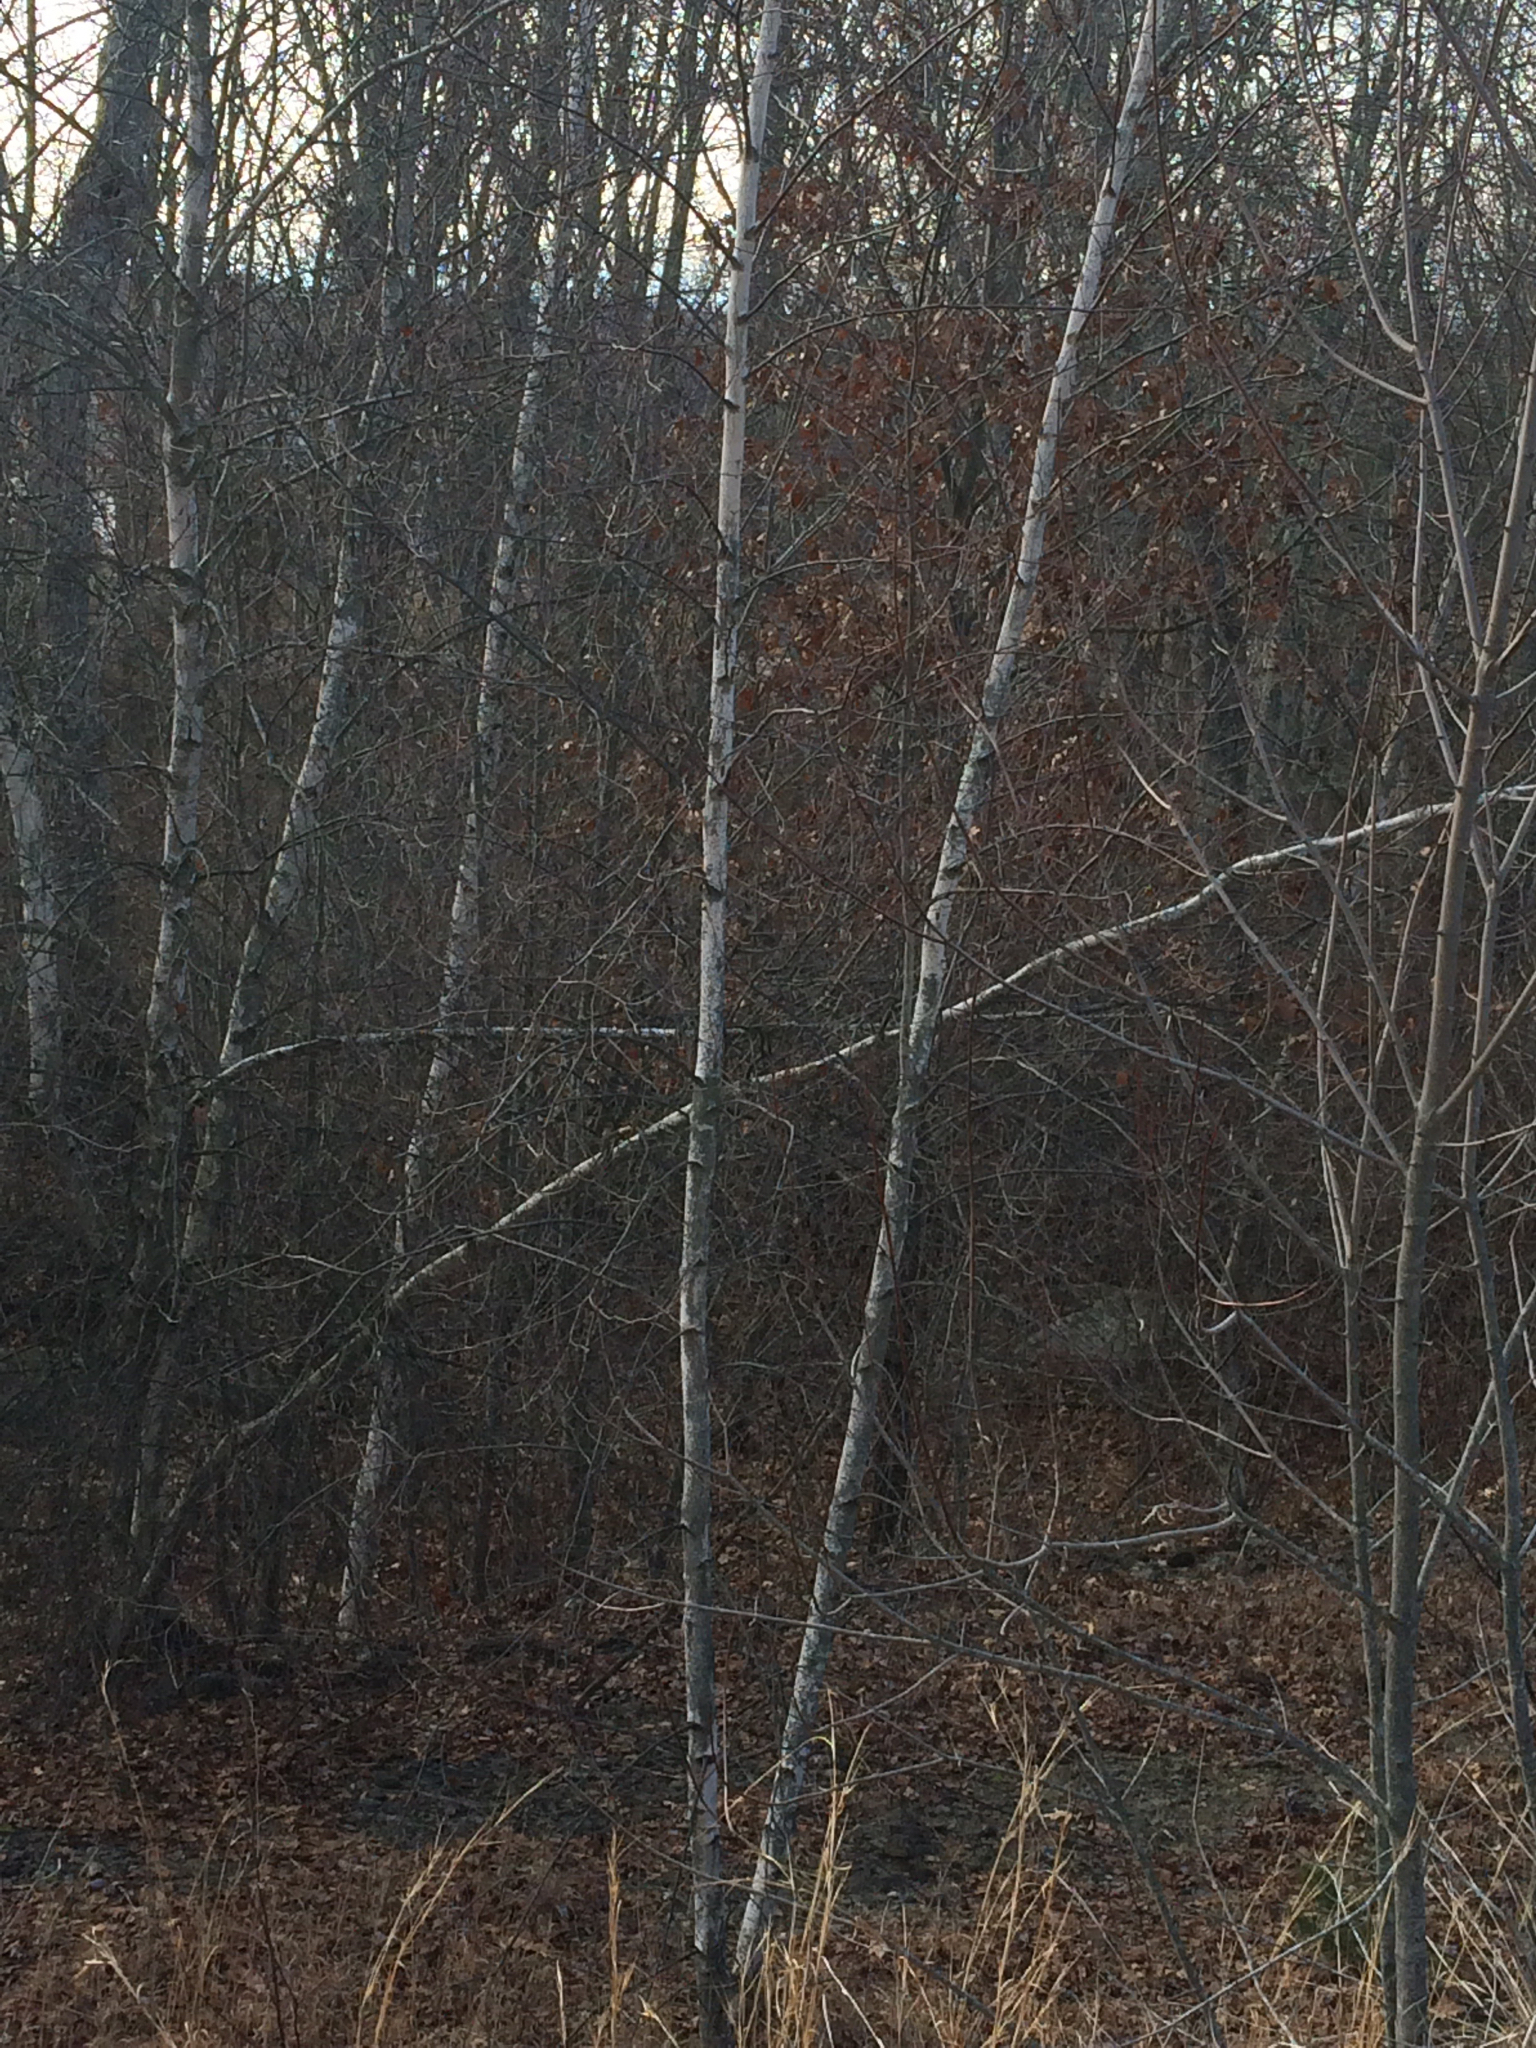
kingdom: Plantae
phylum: Tracheophyta
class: Magnoliopsida
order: Fagales
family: Betulaceae
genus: Betula
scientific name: Betula populifolia
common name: Fire birch
